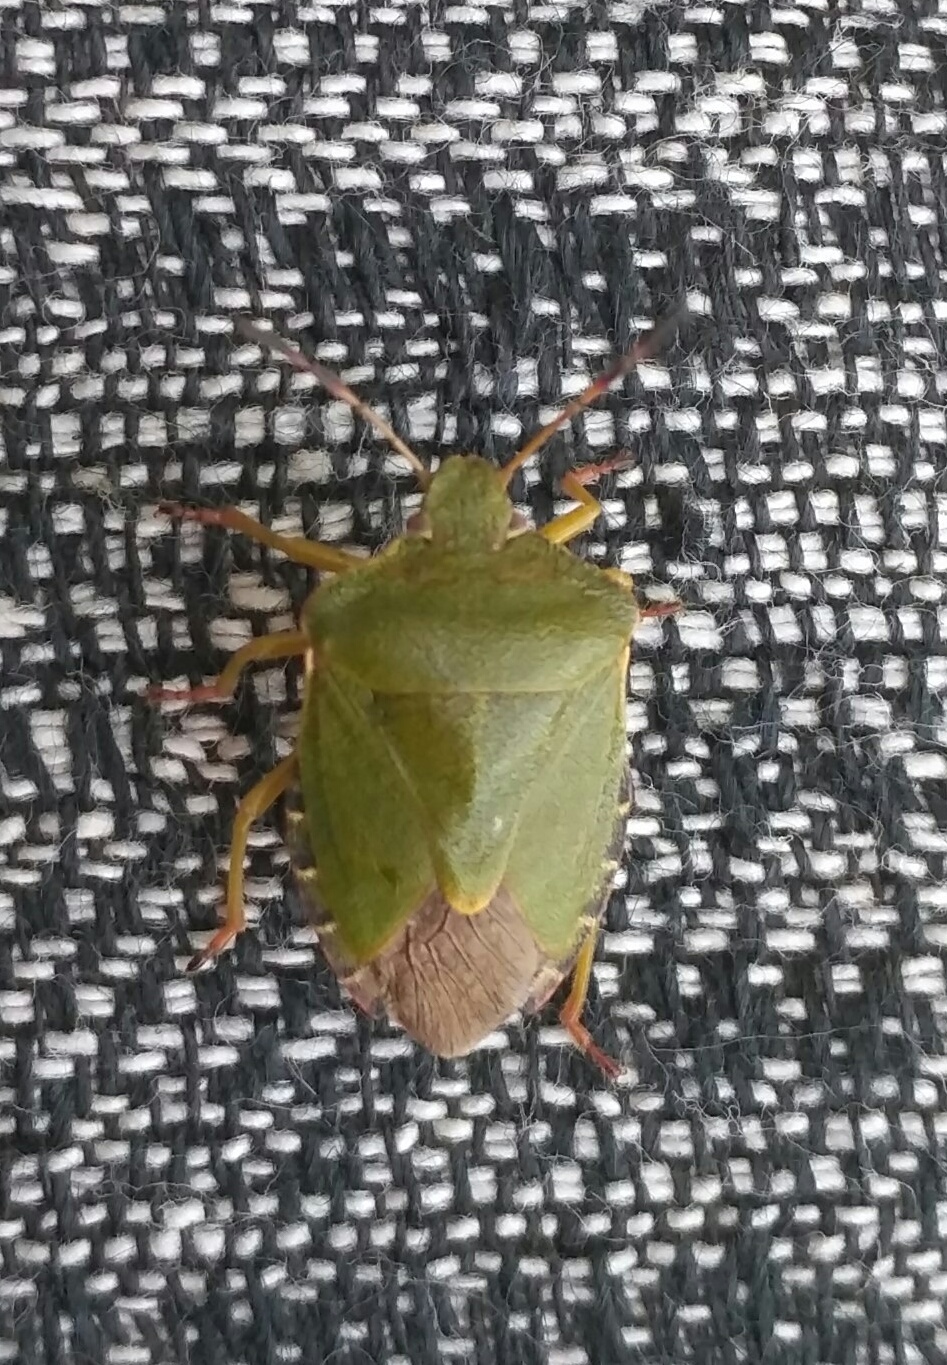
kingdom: Animalia
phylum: Arthropoda
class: Insecta
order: Hemiptera
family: Pentatomidae
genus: Palomena
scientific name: Palomena prasina
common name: Green shieldbug
